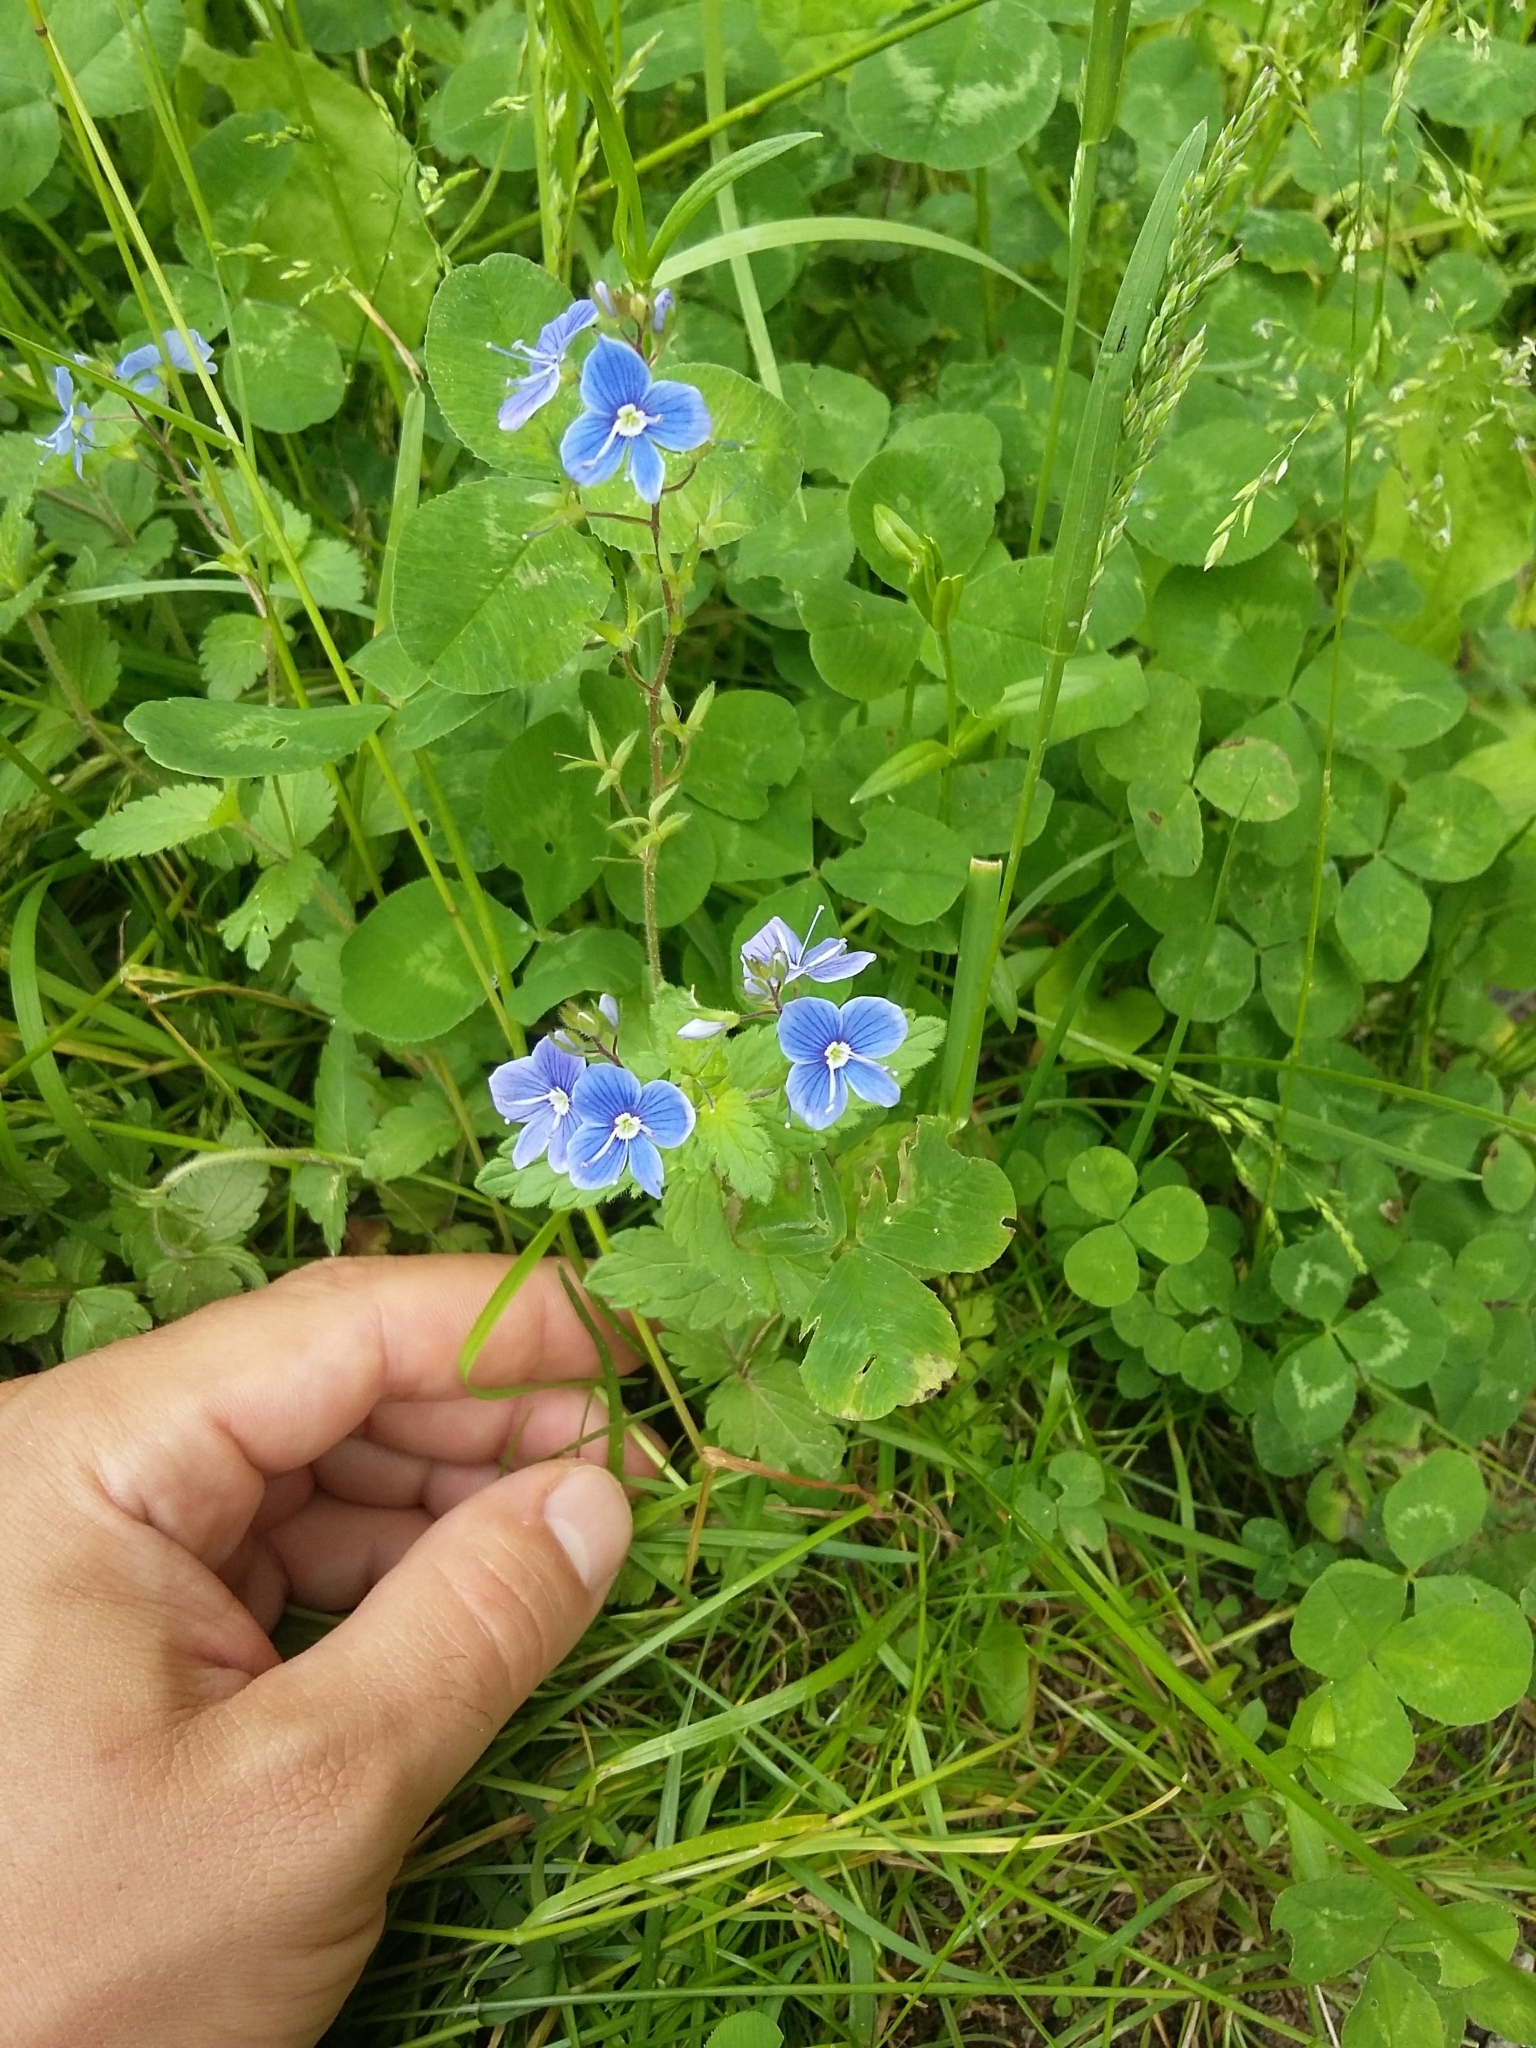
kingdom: Plantae
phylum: Tracheophyta
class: Magnoliopsida
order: Lamiales
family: Plantaginaceae
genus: Veronica
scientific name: Veronica chamaedrys
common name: Germander speedwell
